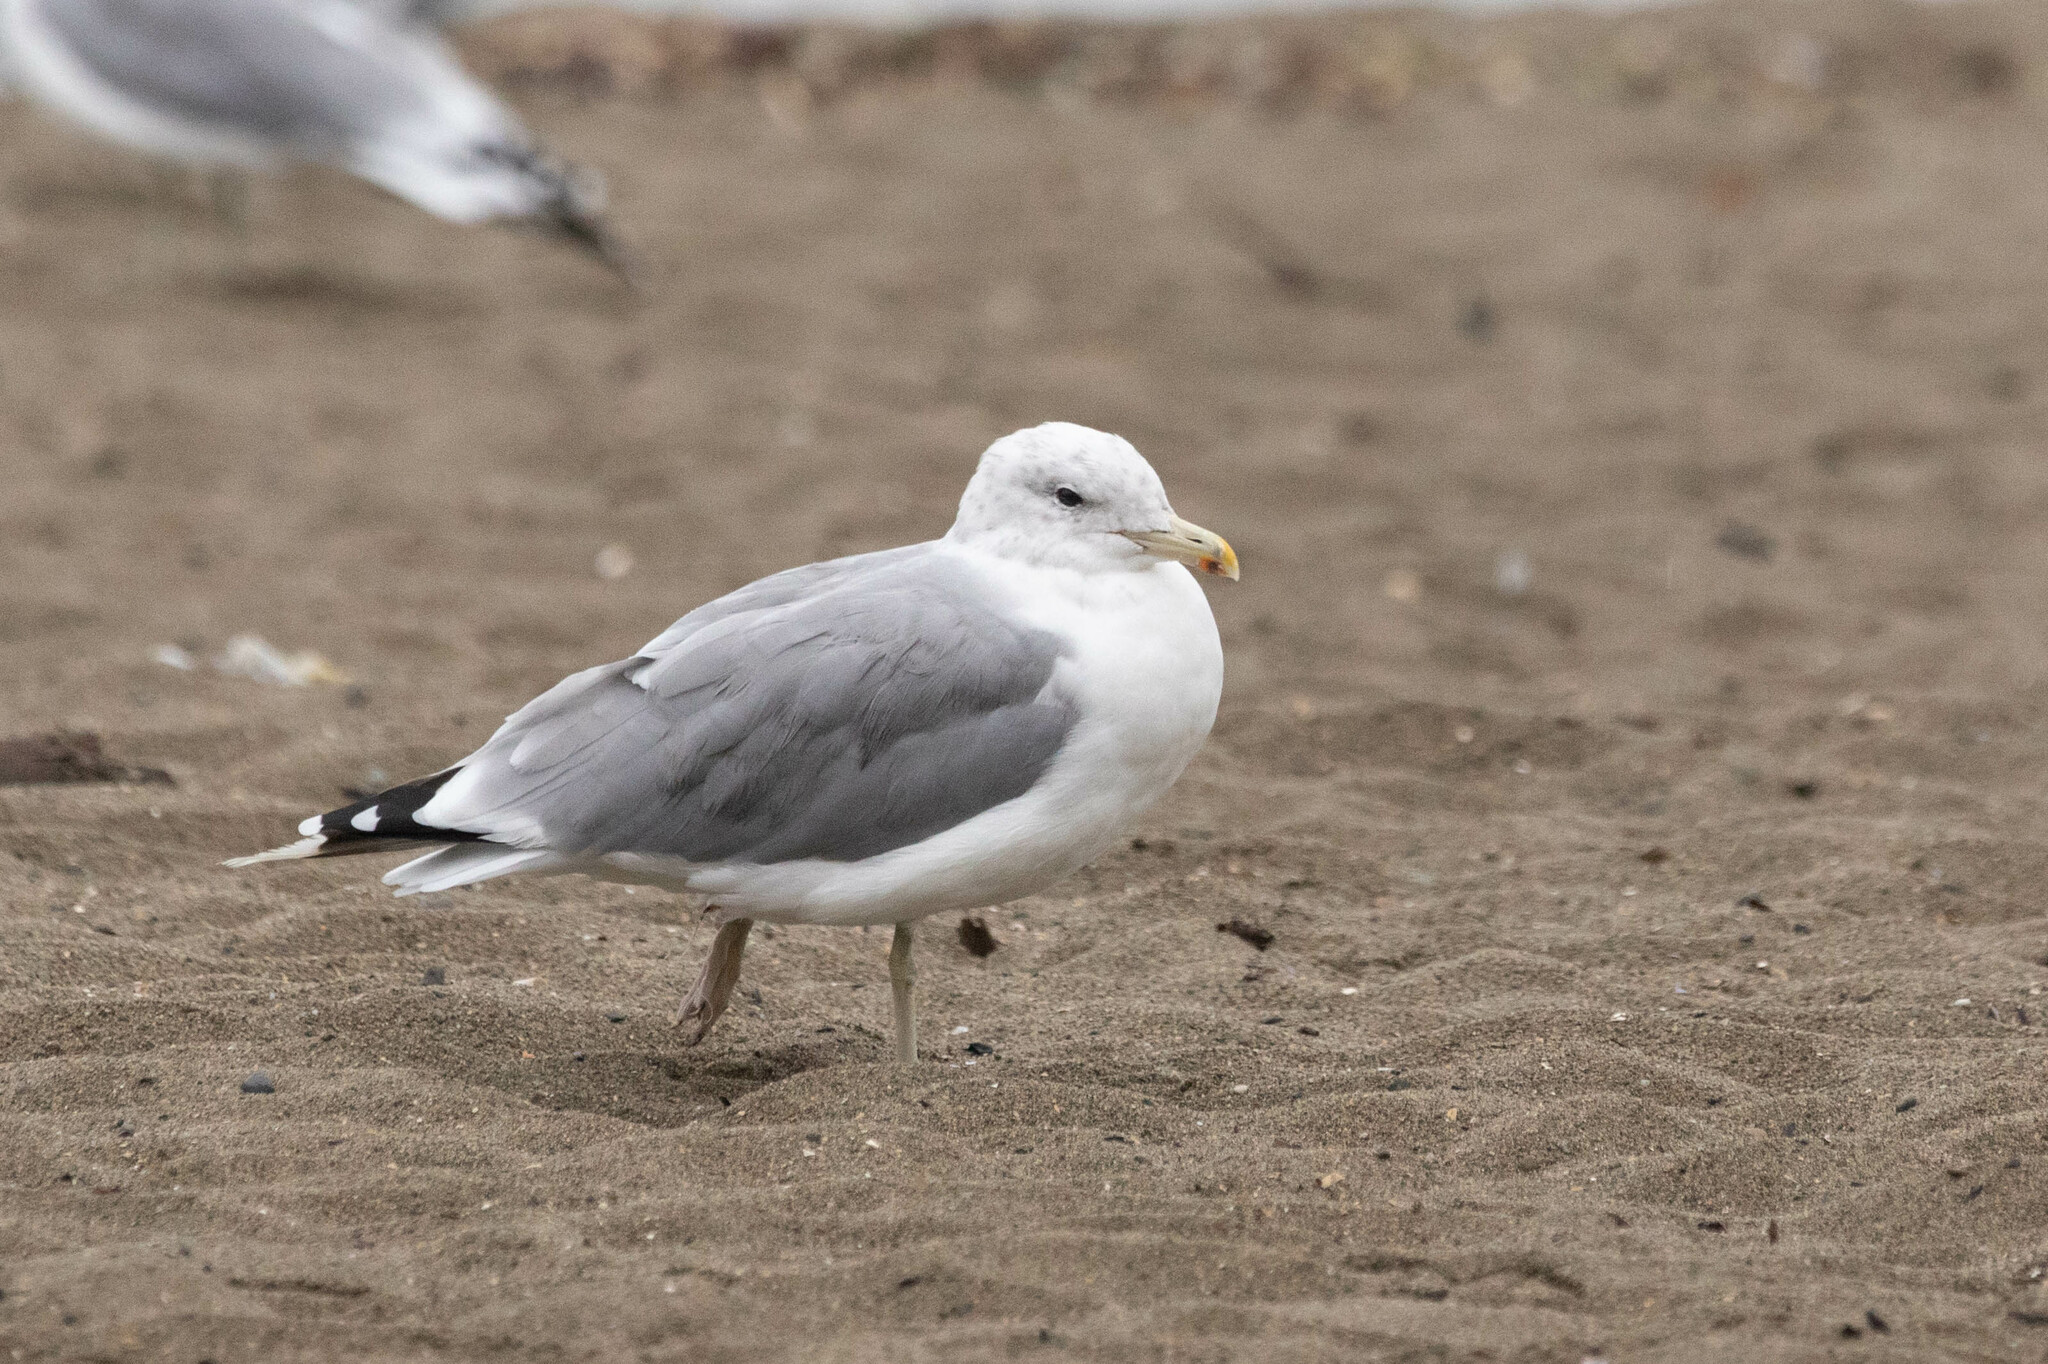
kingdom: Animalia
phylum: Chordata
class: Aves
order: Charadriiformes
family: Laridae
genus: Larus
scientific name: Larus californicus
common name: California gull
